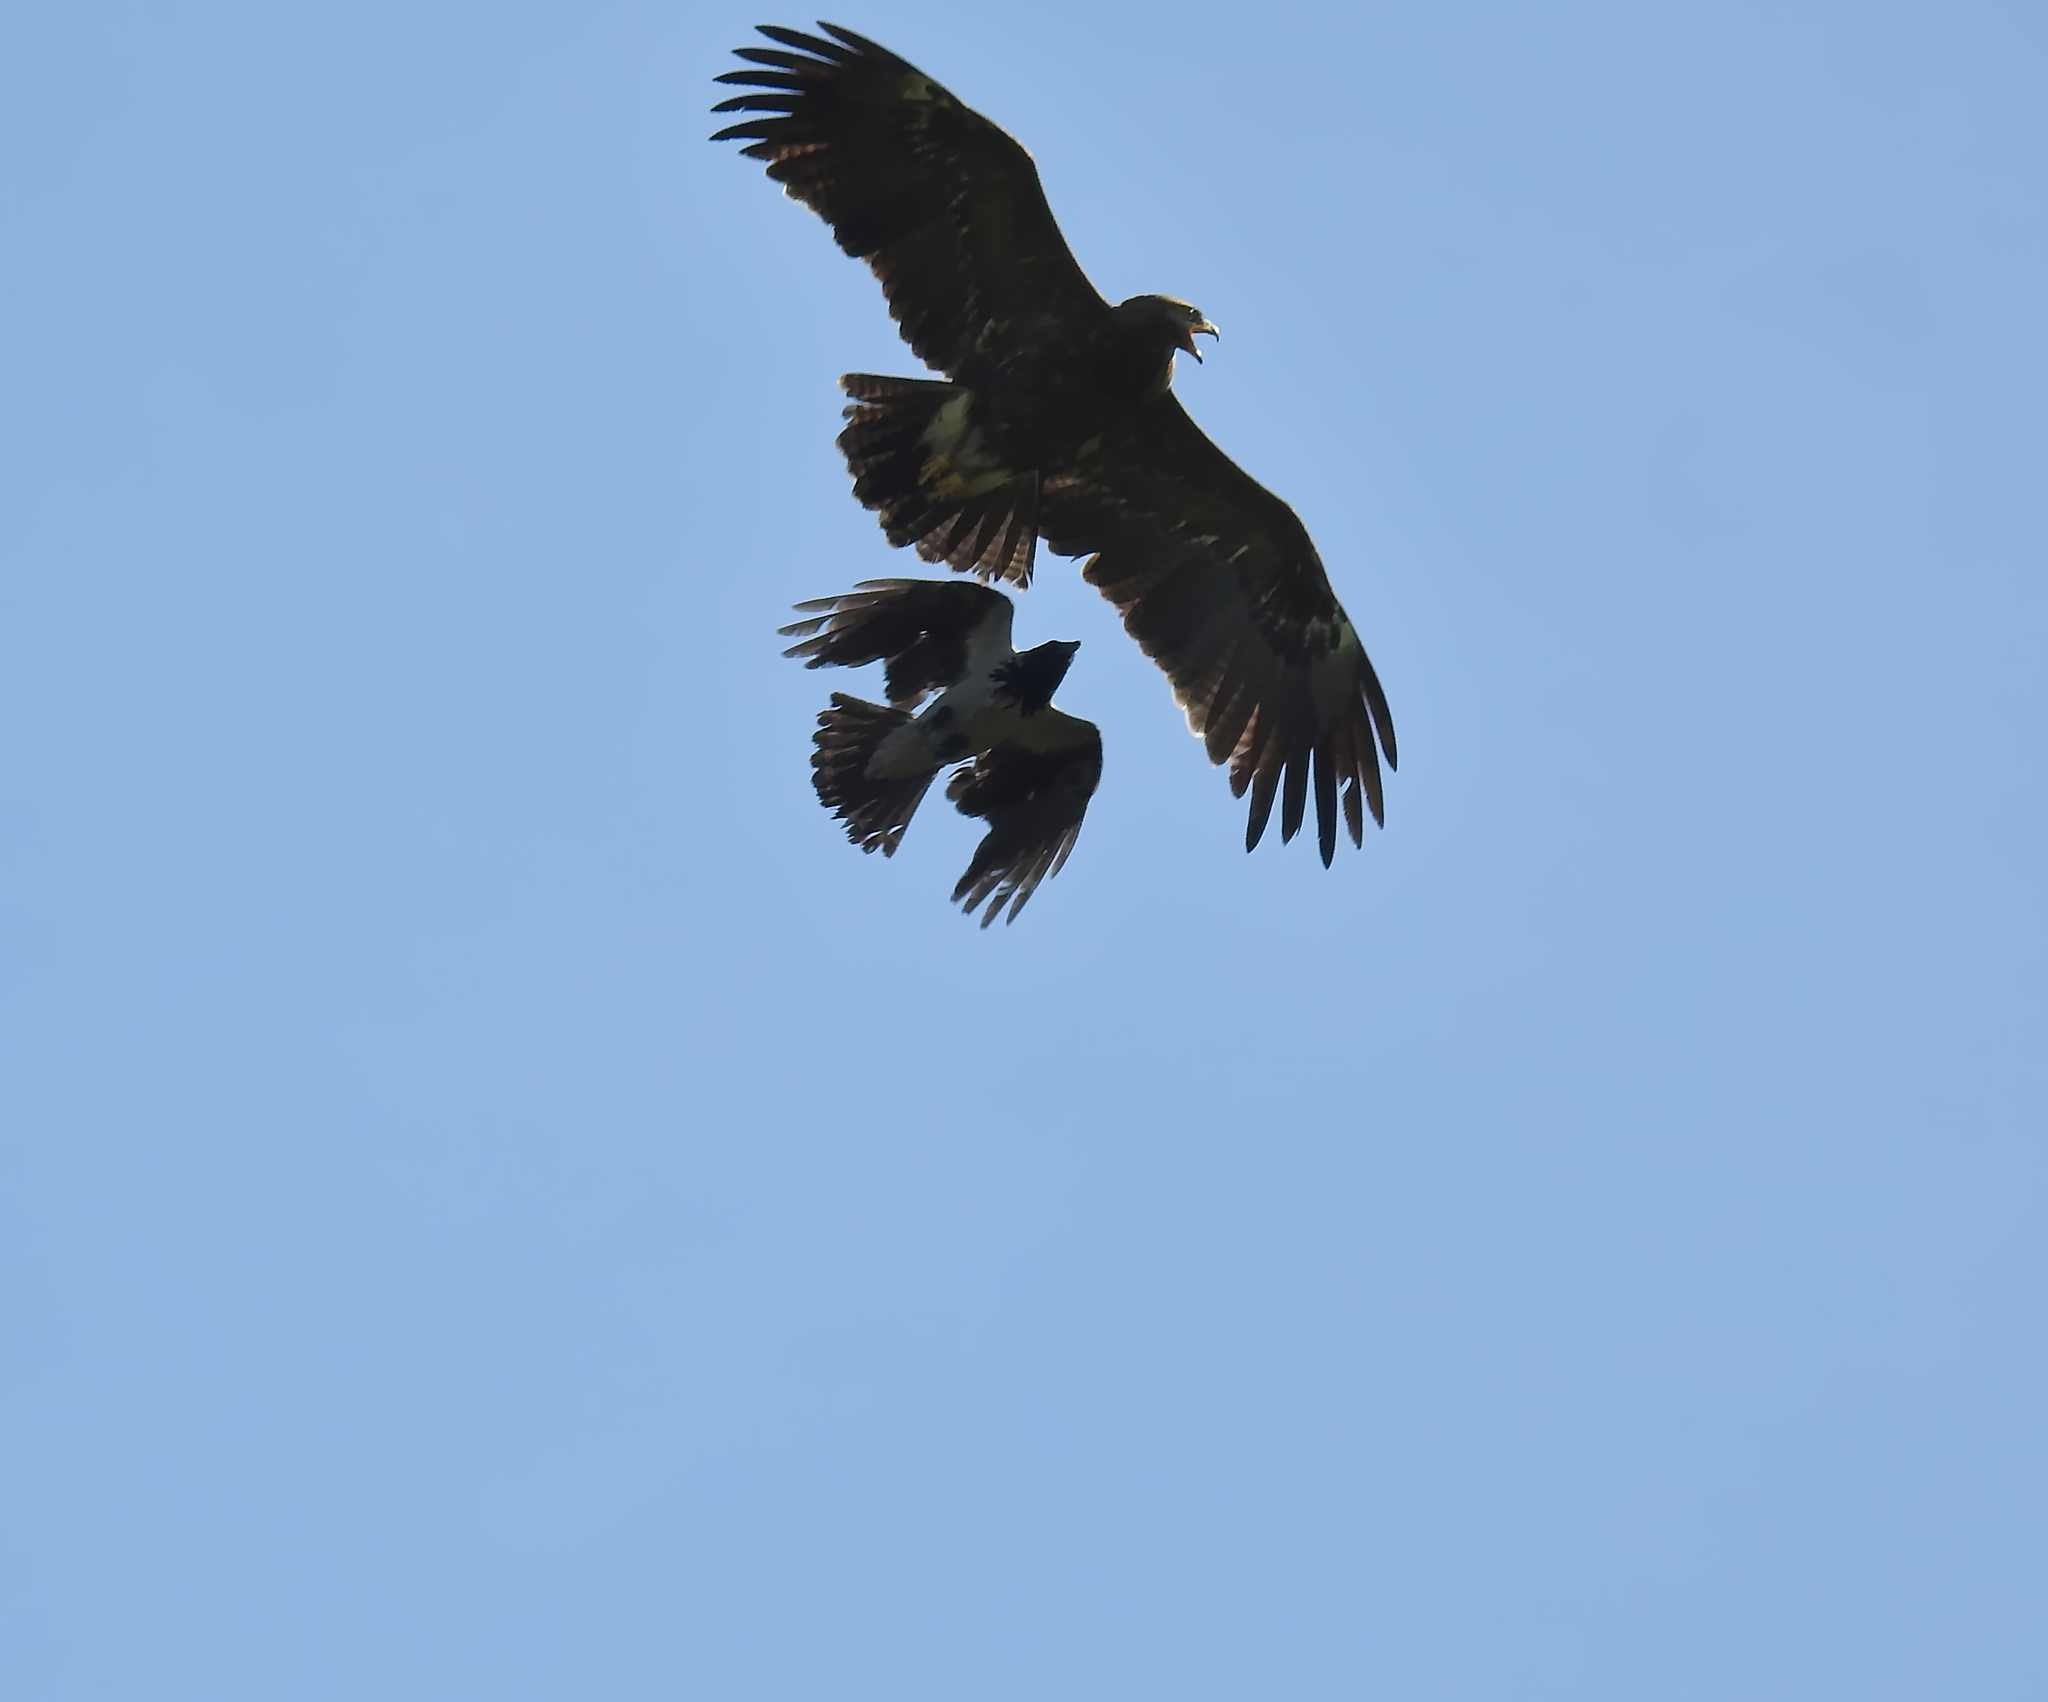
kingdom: Animalia
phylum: Chordata
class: Aves
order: Accipitriformes
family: Accipitridae
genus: Aquila
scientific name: Aquila pomarina
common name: Lesser spotted eagle
